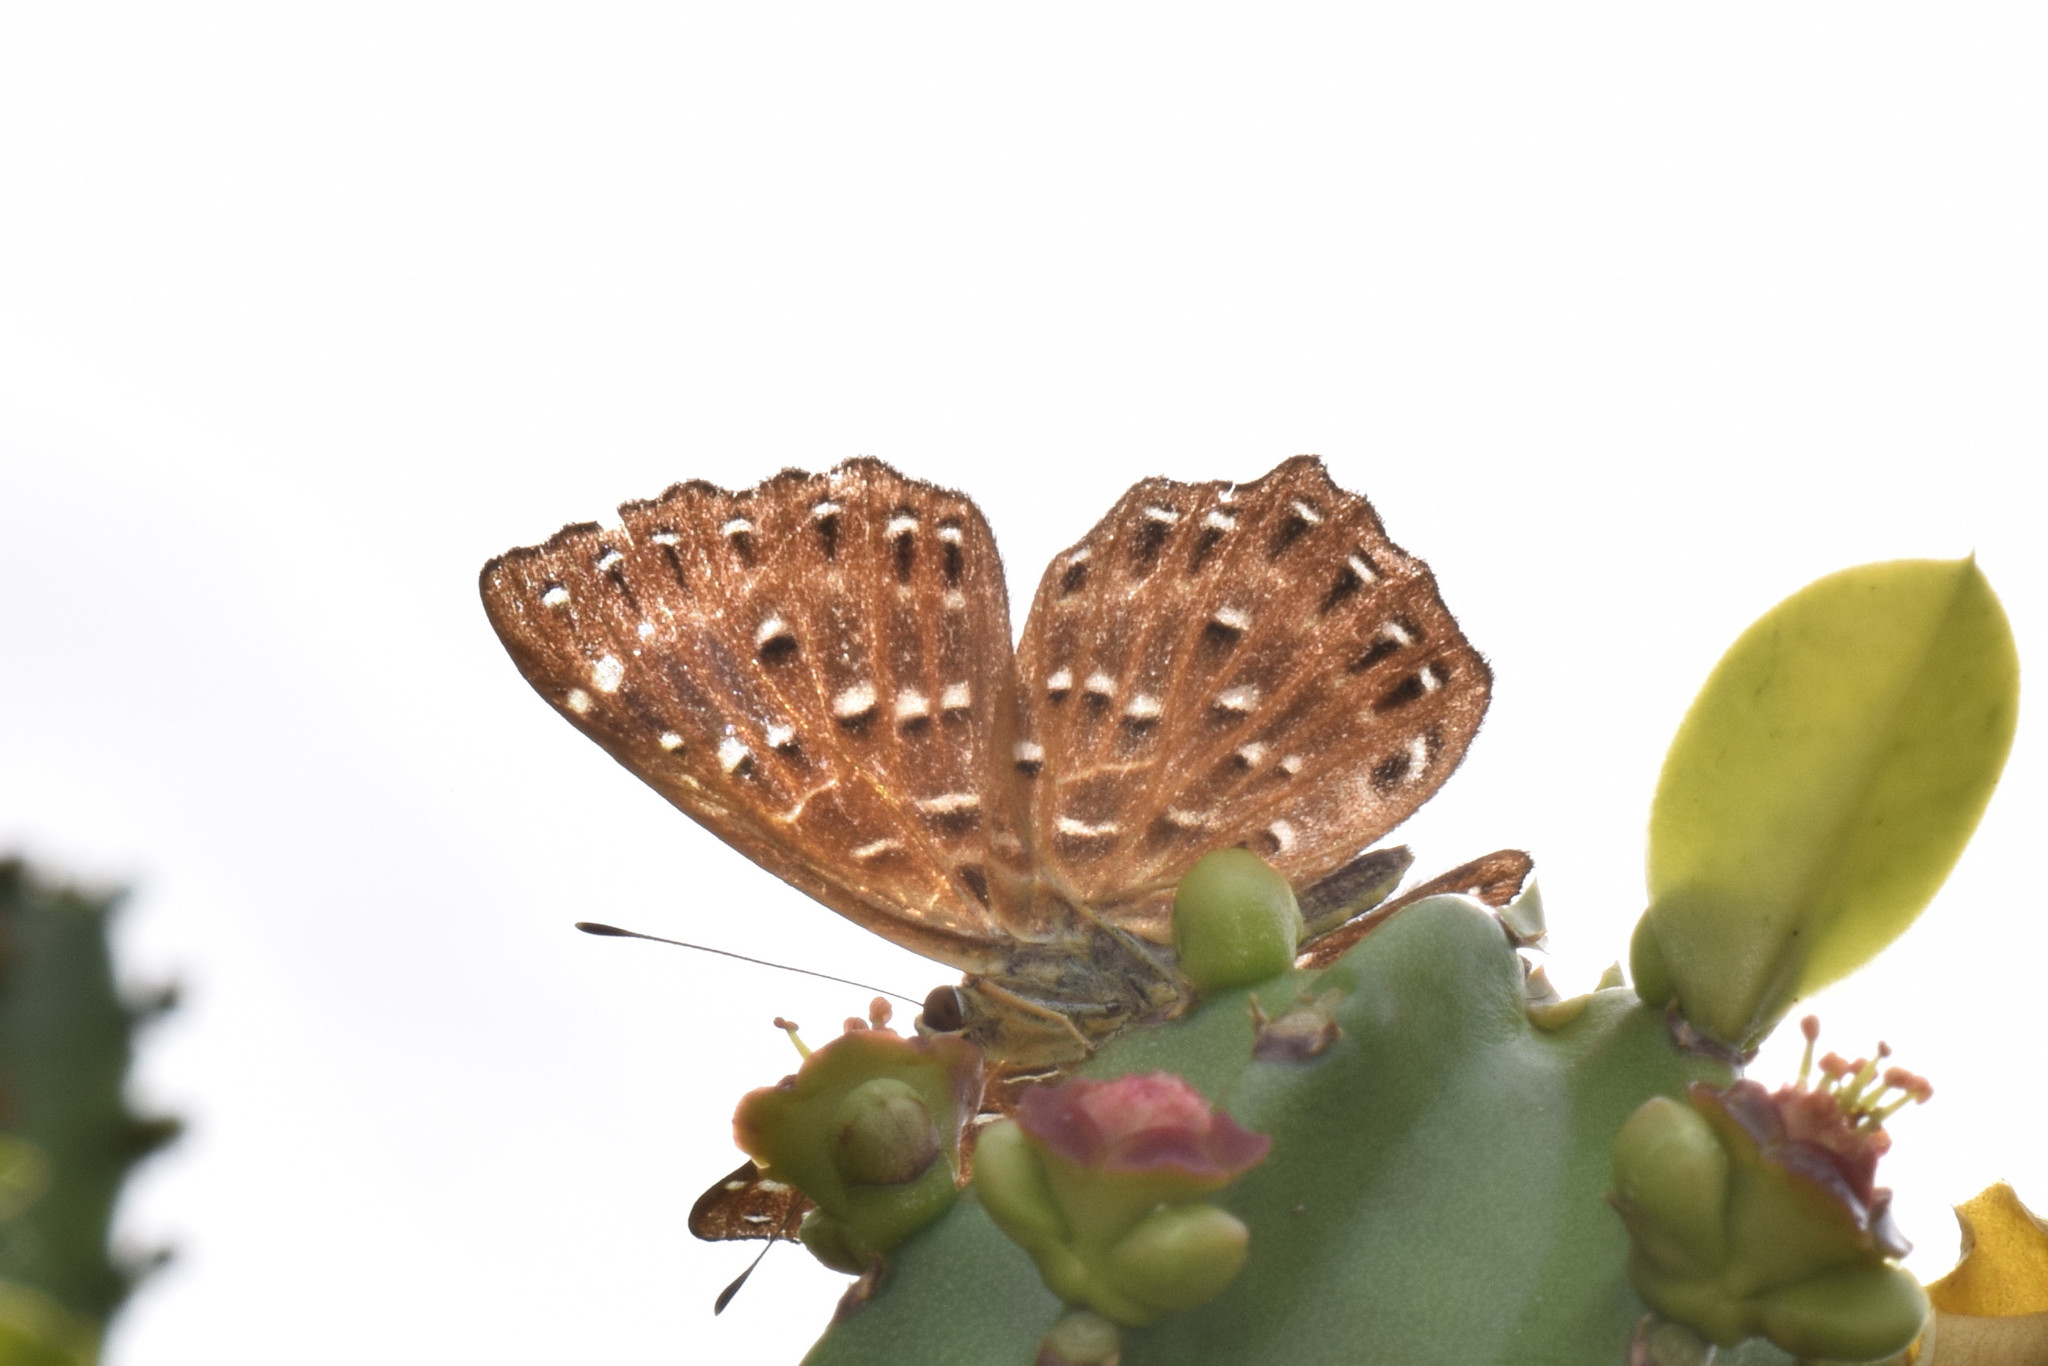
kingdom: Animalia
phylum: Arthropoda
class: Insecta
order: Lepidoptera
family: Riodinidae
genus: Zemeros
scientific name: Zemeros flegyas
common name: Punchinello
